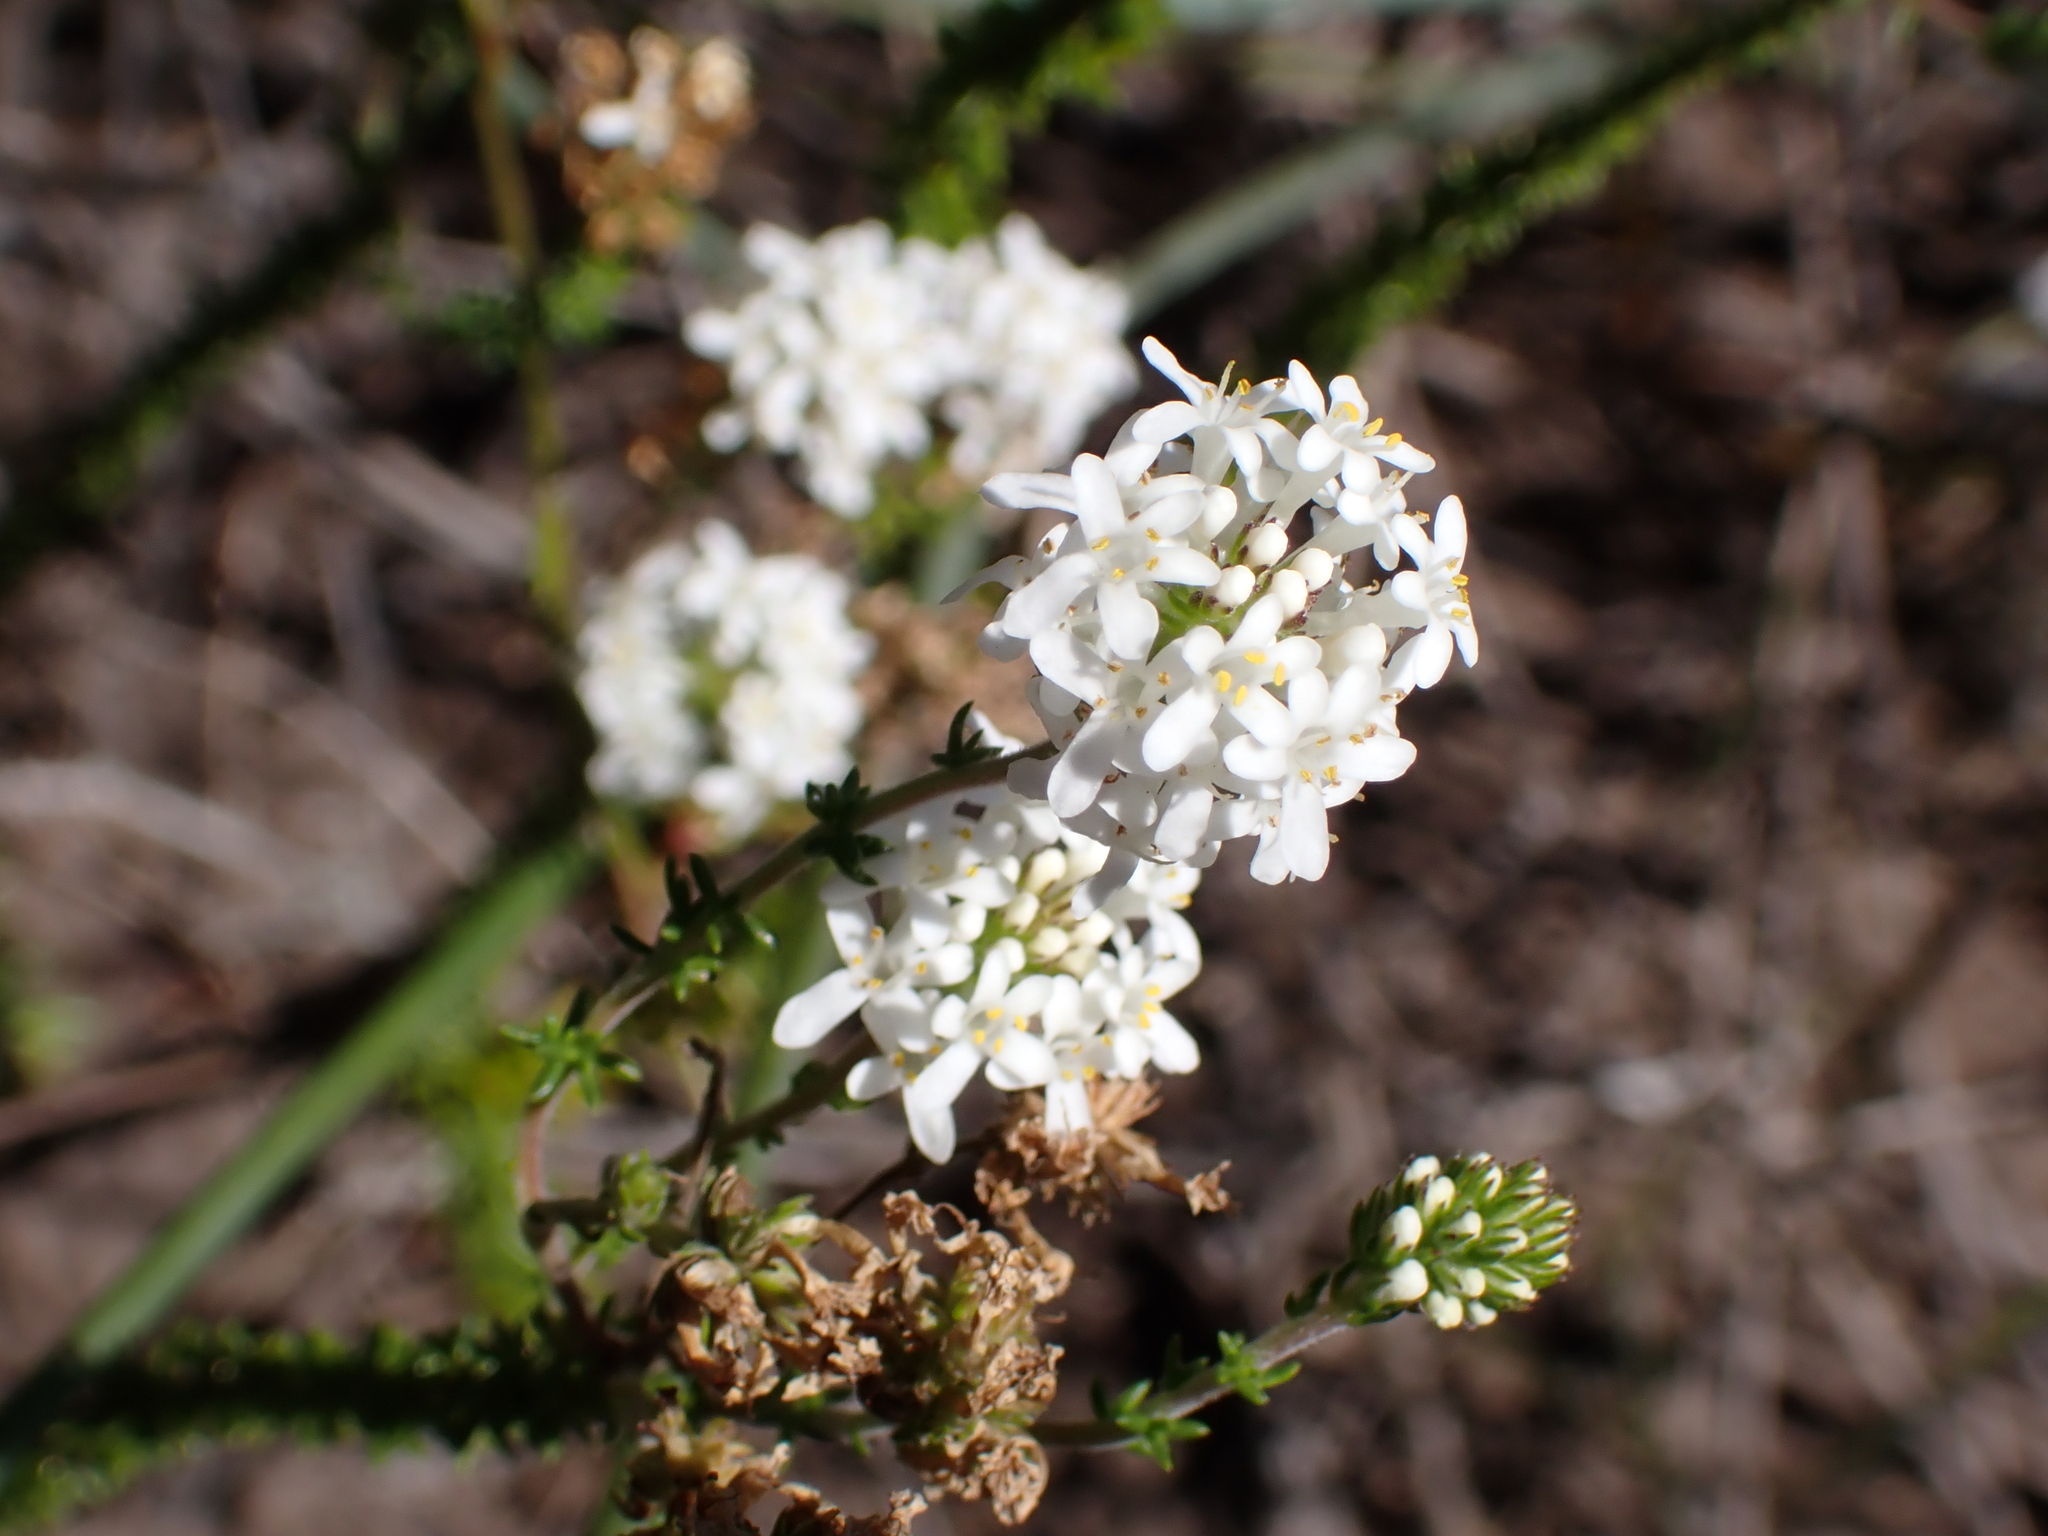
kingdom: Plantae
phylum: Tracheophyta
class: Magnoliopsida
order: Lamiales
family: Scrophulariaceae
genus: Selago
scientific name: Selago brevifolia
